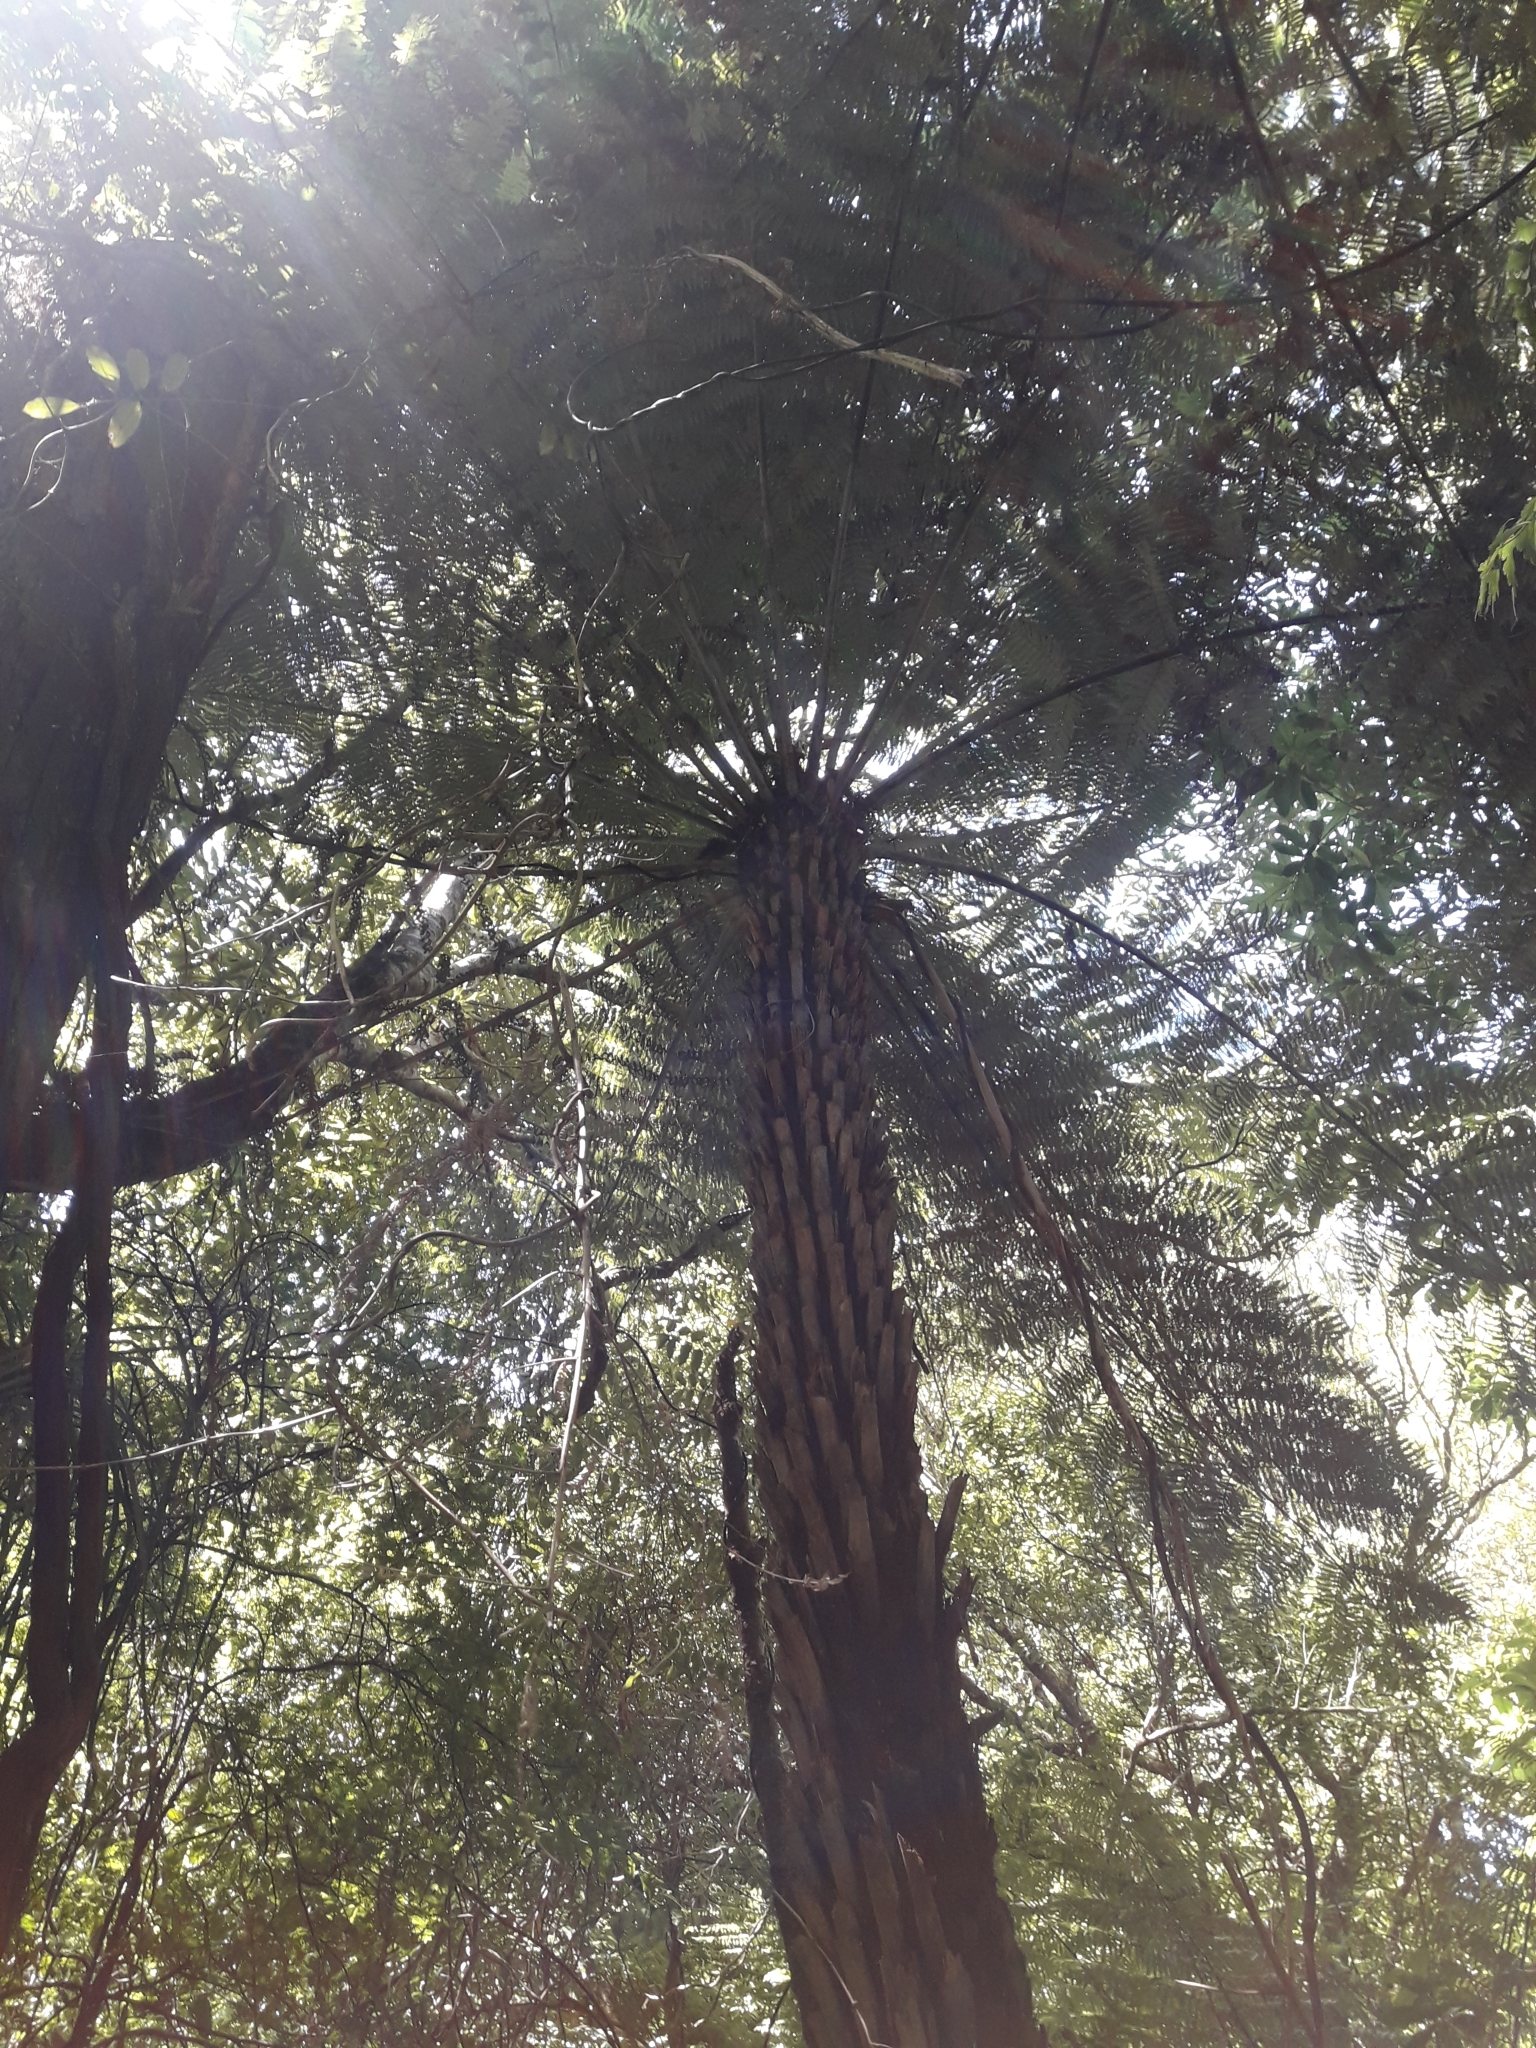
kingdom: Plantae
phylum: Tracheophyta
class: Polypodiopsida
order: Cyatheales
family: Cyatheaceae
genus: Alsophila
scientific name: Alsophila dealbata
